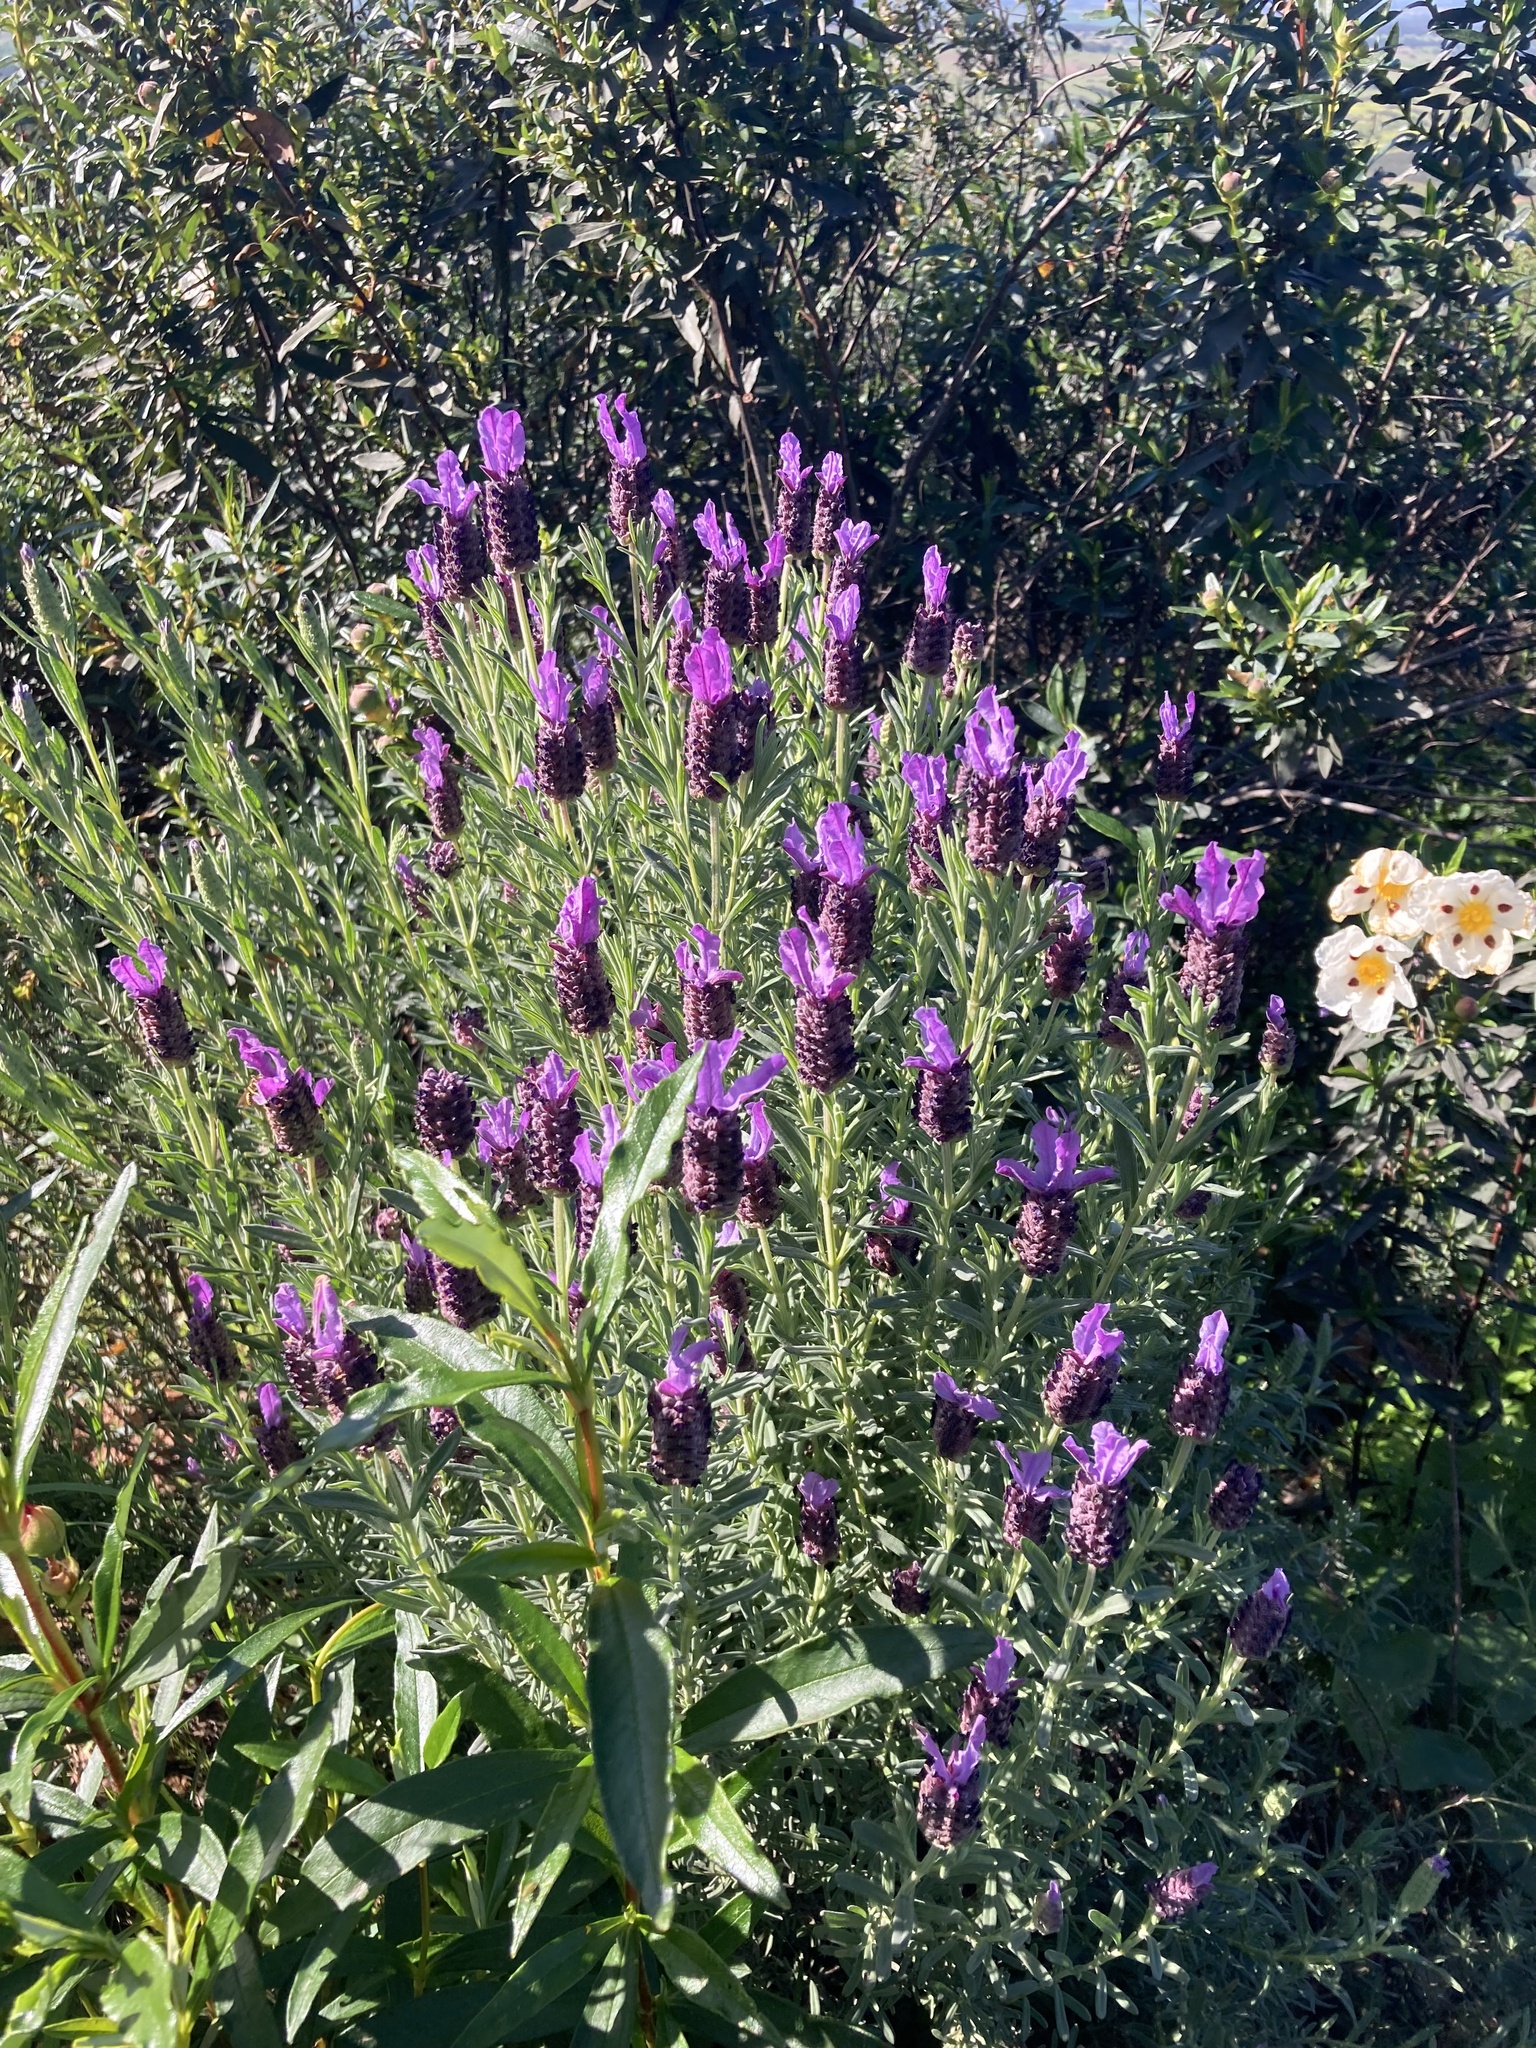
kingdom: Plantae
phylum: Tracheophyta
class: Magnoliopsida
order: Lamiales
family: Lamiaceae
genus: Lavandula
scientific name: Lavandula stoechas
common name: French lavender
